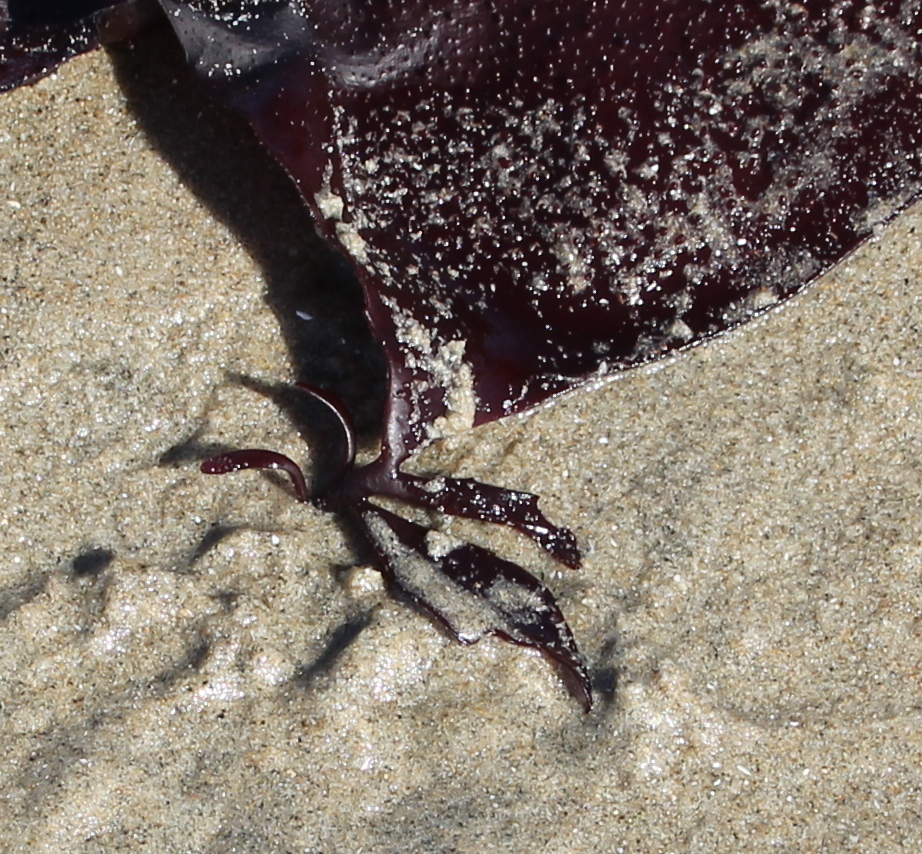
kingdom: Plantae
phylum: Rhodophyta
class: Florideophyceae
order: Gigartinales
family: Gigartinaceae
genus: Chondracanthus
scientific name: Chondracanthus exasperatus
